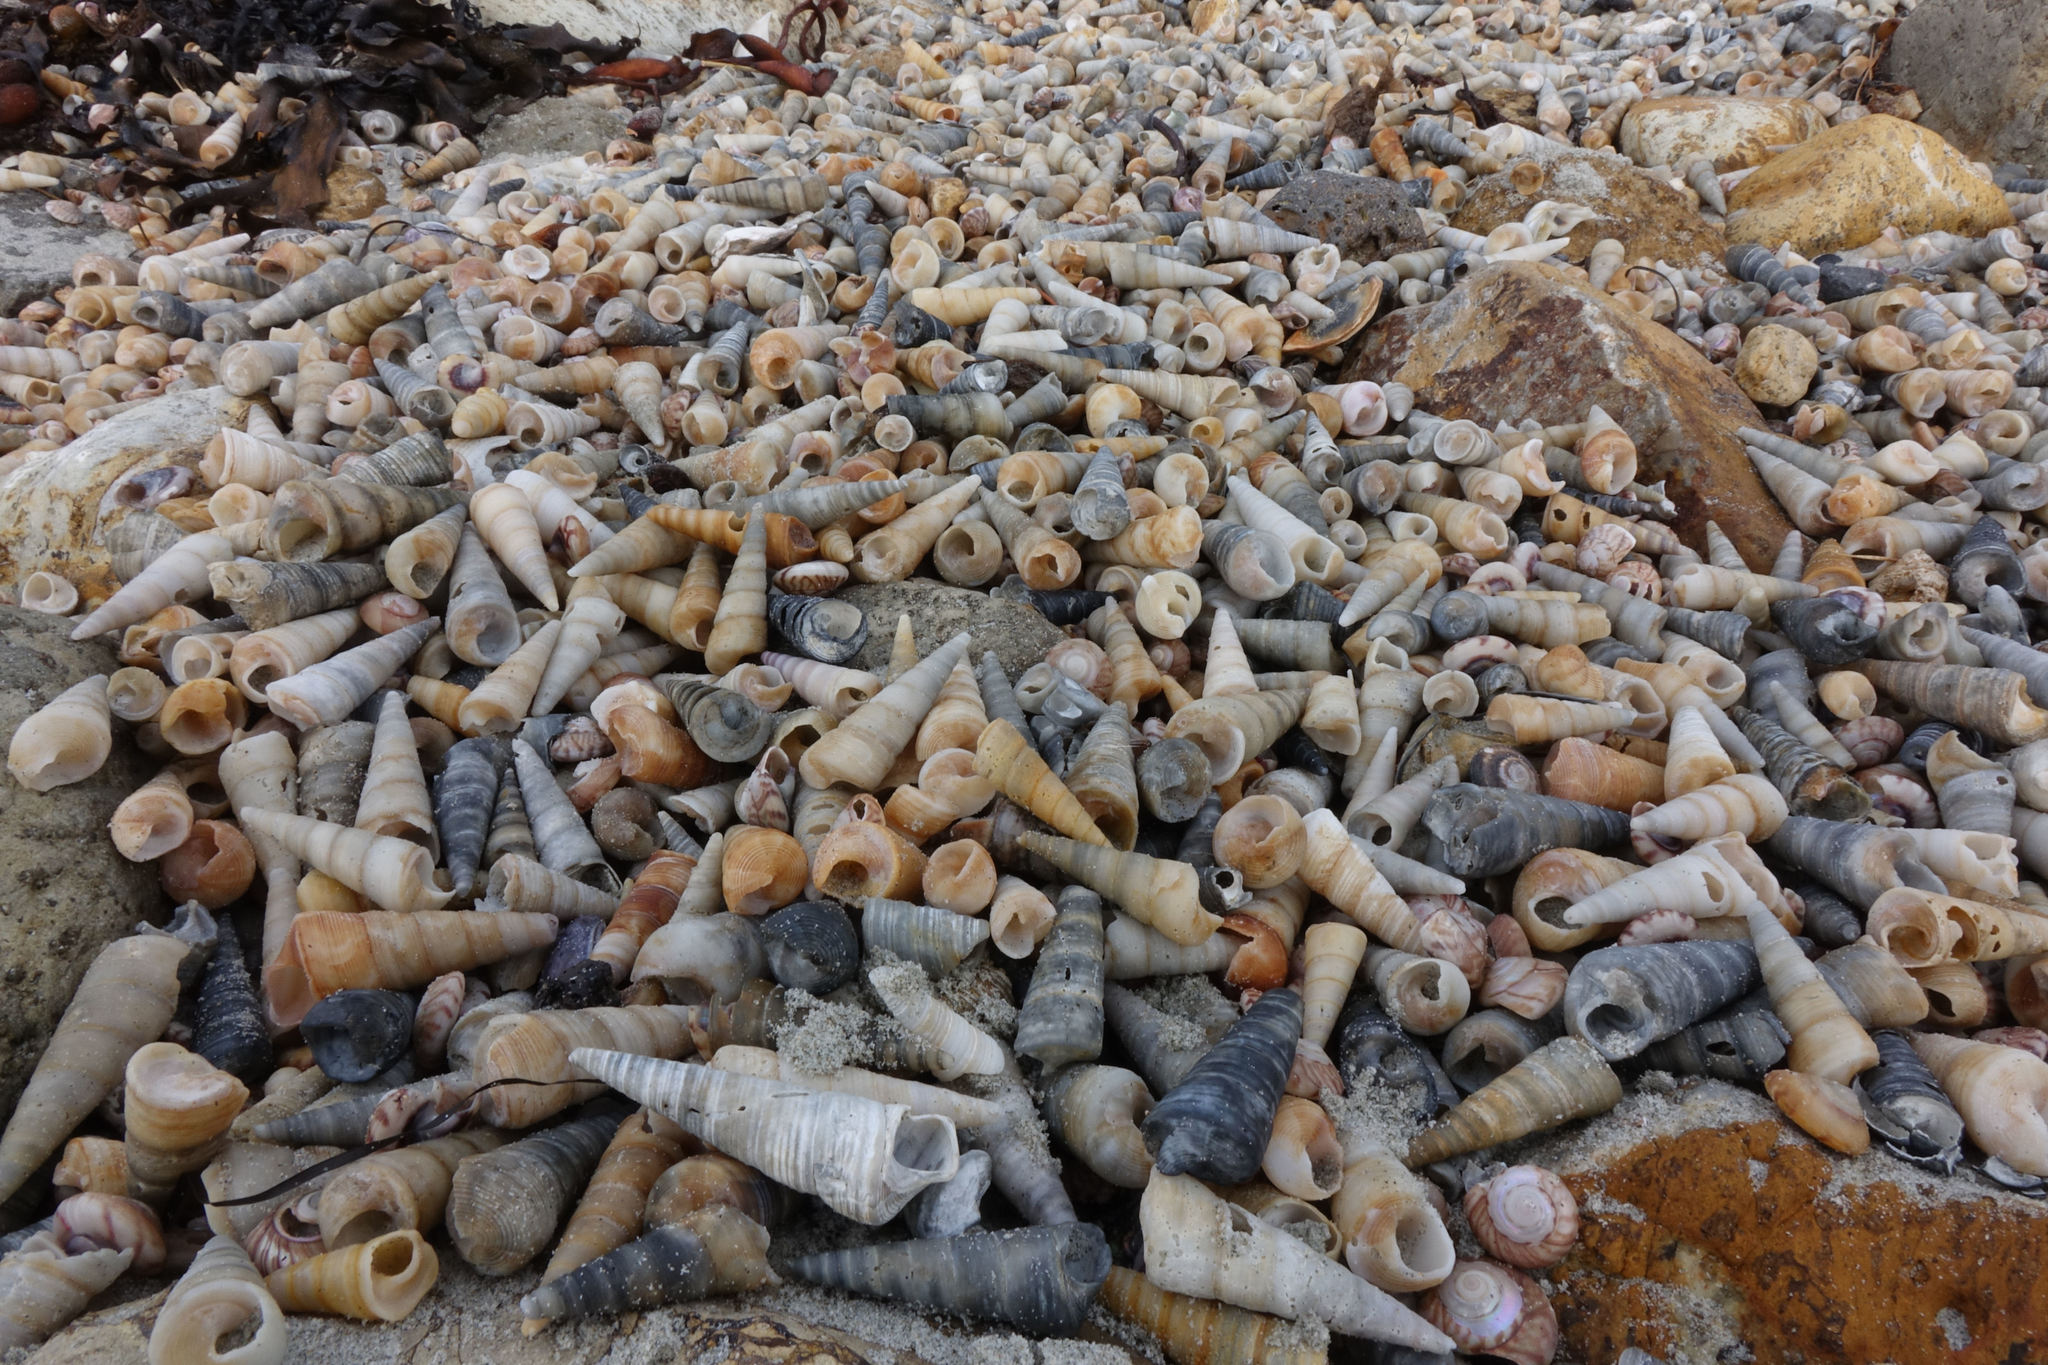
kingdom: Animalia
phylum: Mollusca
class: Gastropoda
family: Turritellidae
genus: Maoricolpus
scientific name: Maoricolpus roseus
